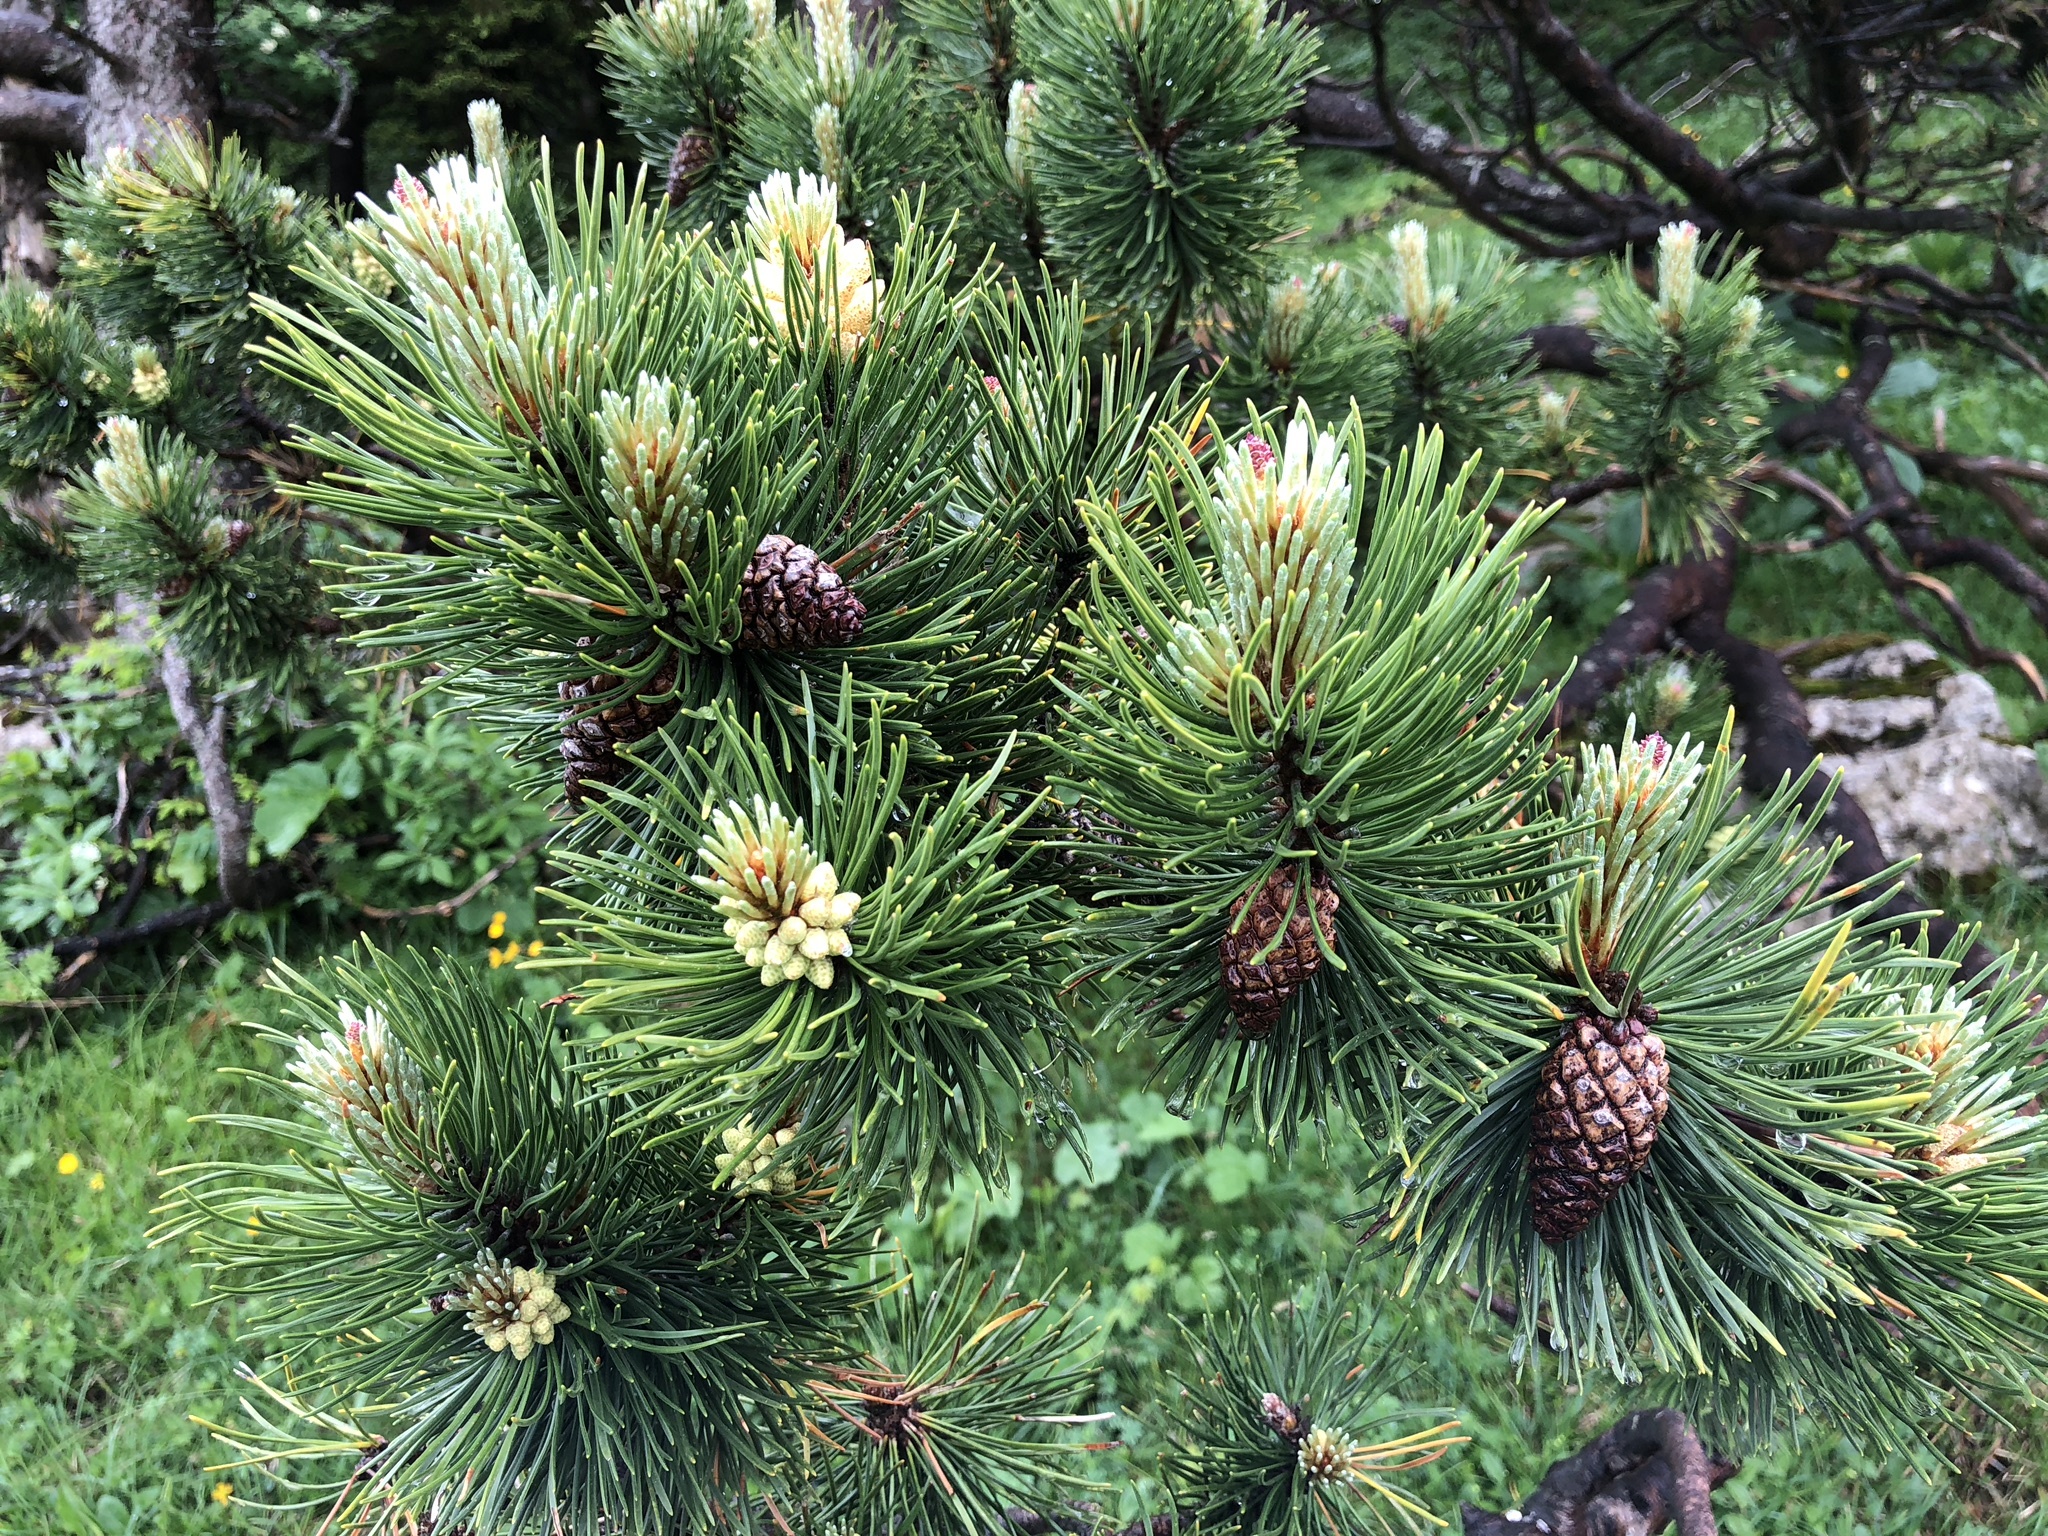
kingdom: Plantae
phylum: Tracheophyta
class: Pinopsida
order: Pinales
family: Pinaceae
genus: Pinus
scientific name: Pinus mugo
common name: Mugo pine
